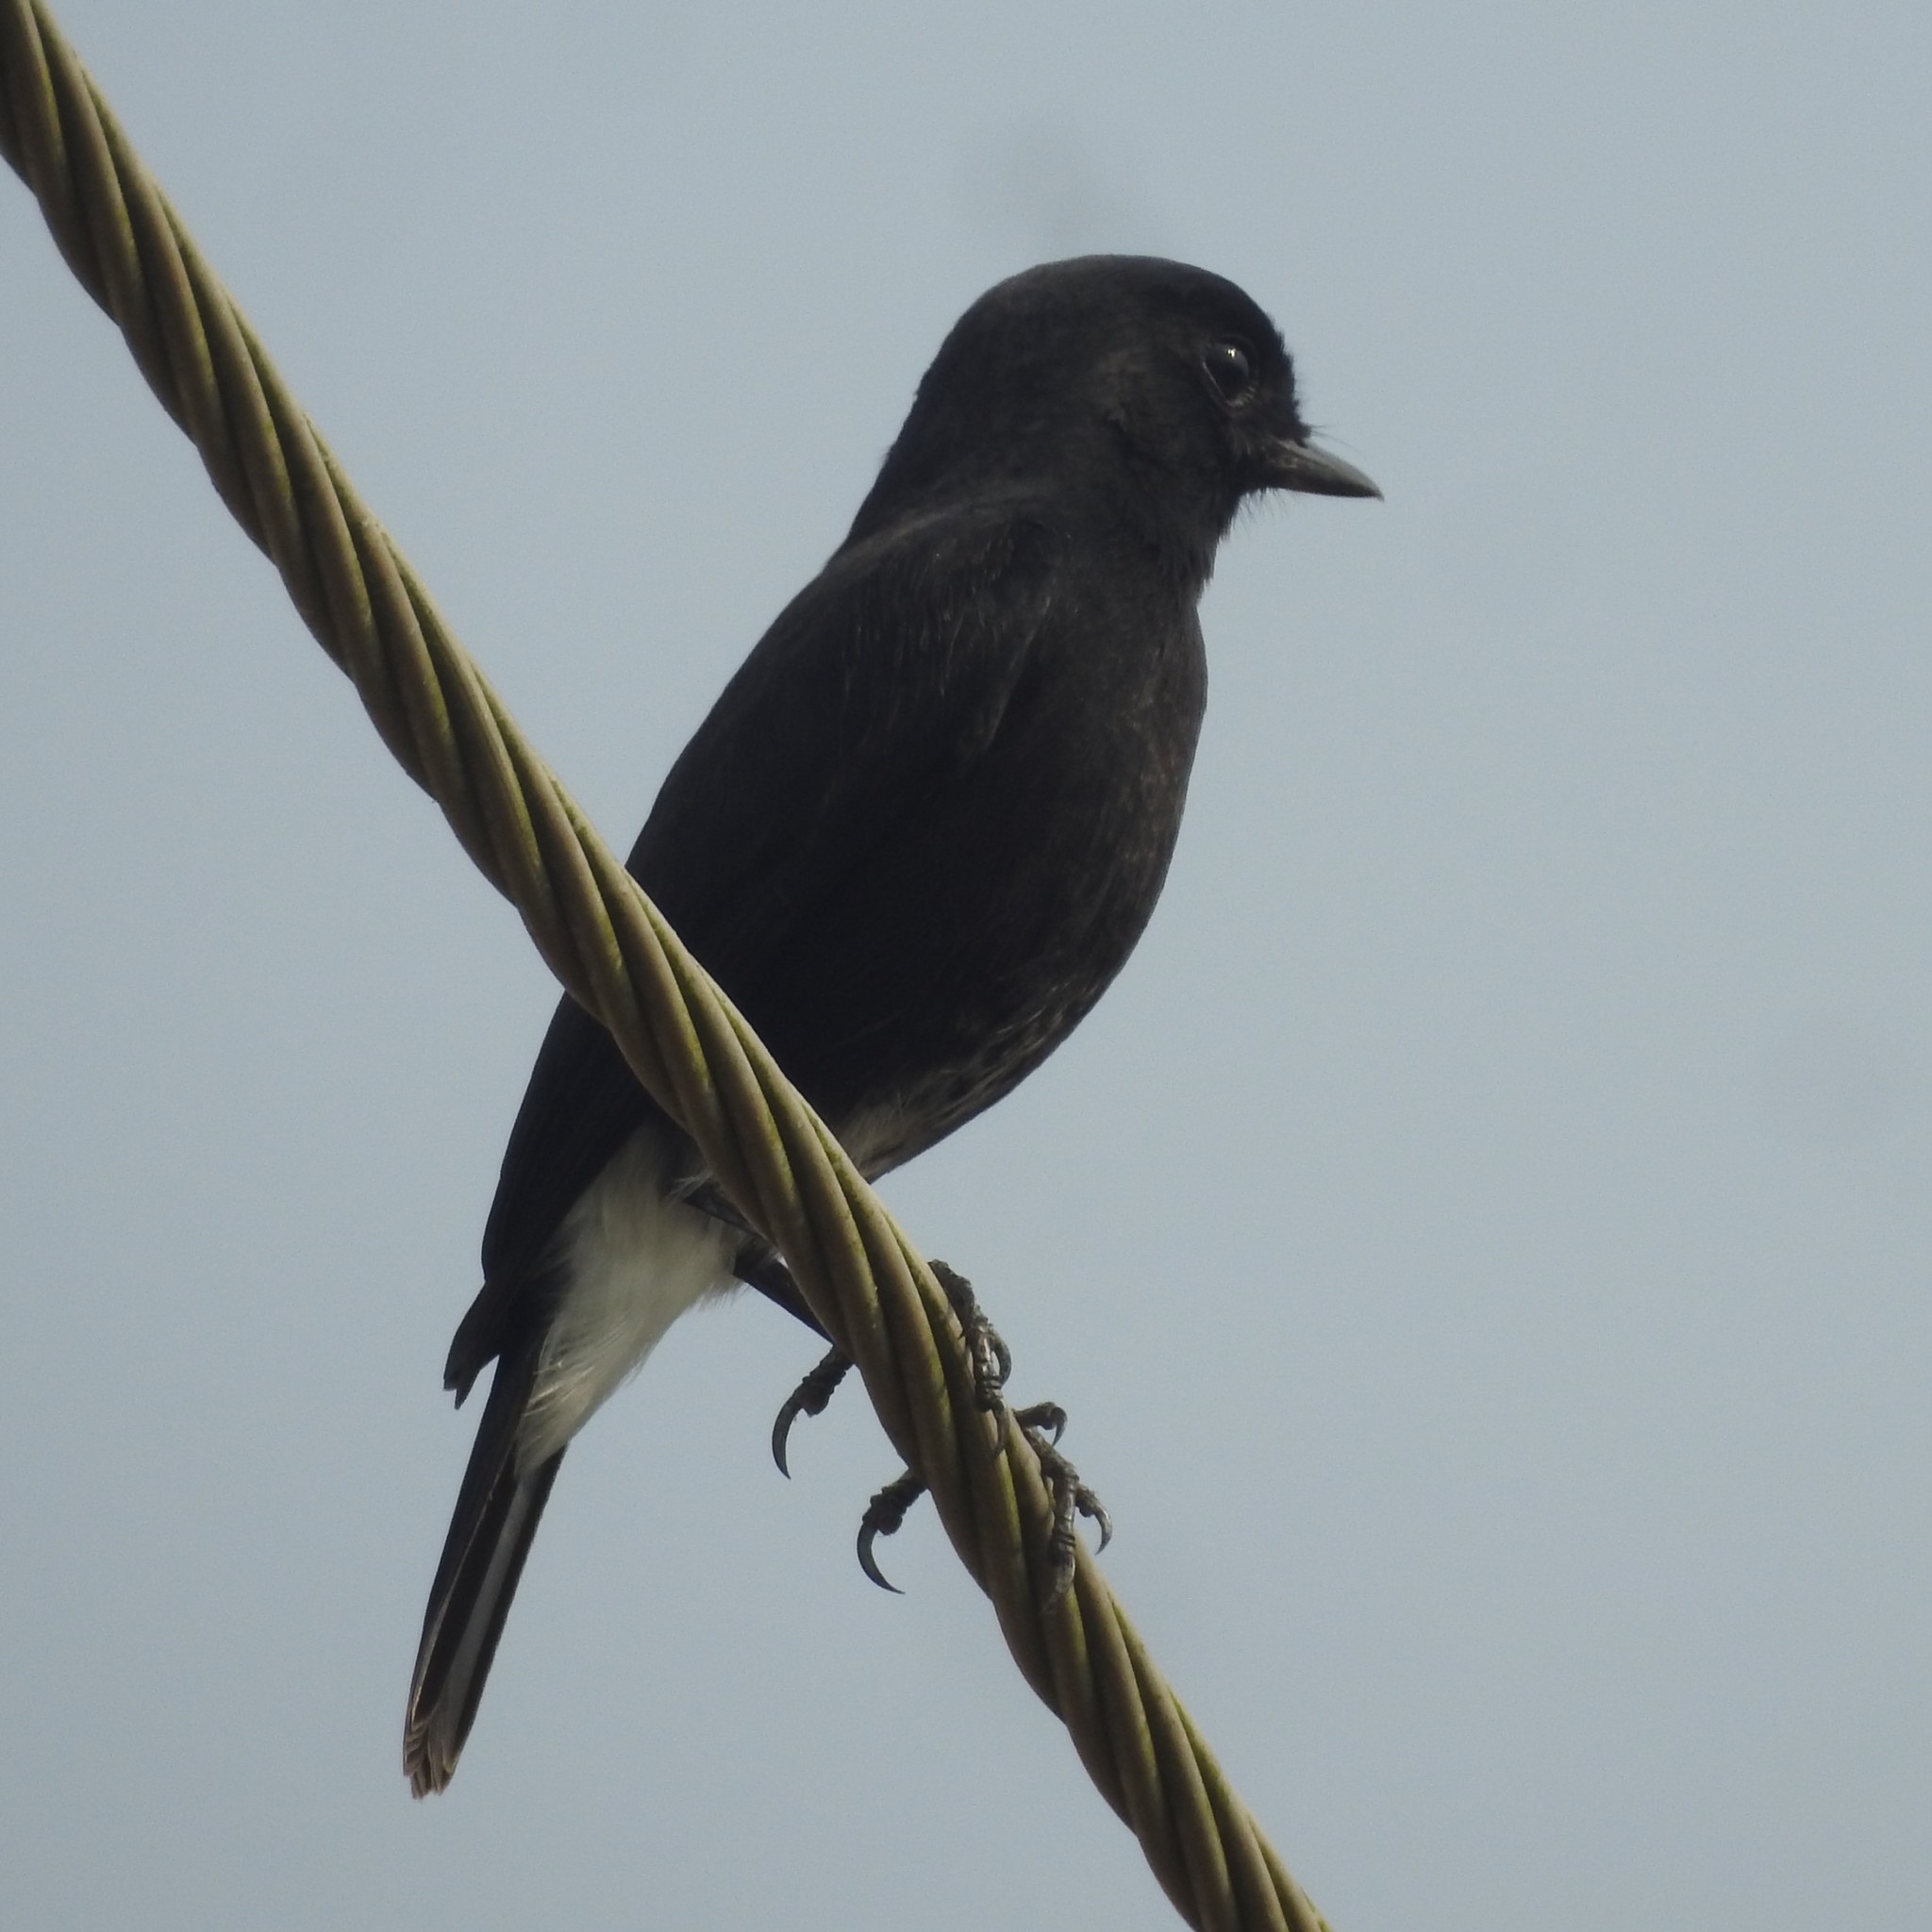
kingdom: Animalia
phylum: Chordata
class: Aves
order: Passeriformes
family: Muscicapidae
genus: Saxicola
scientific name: Saxicola caprata
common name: Pied bush chat
